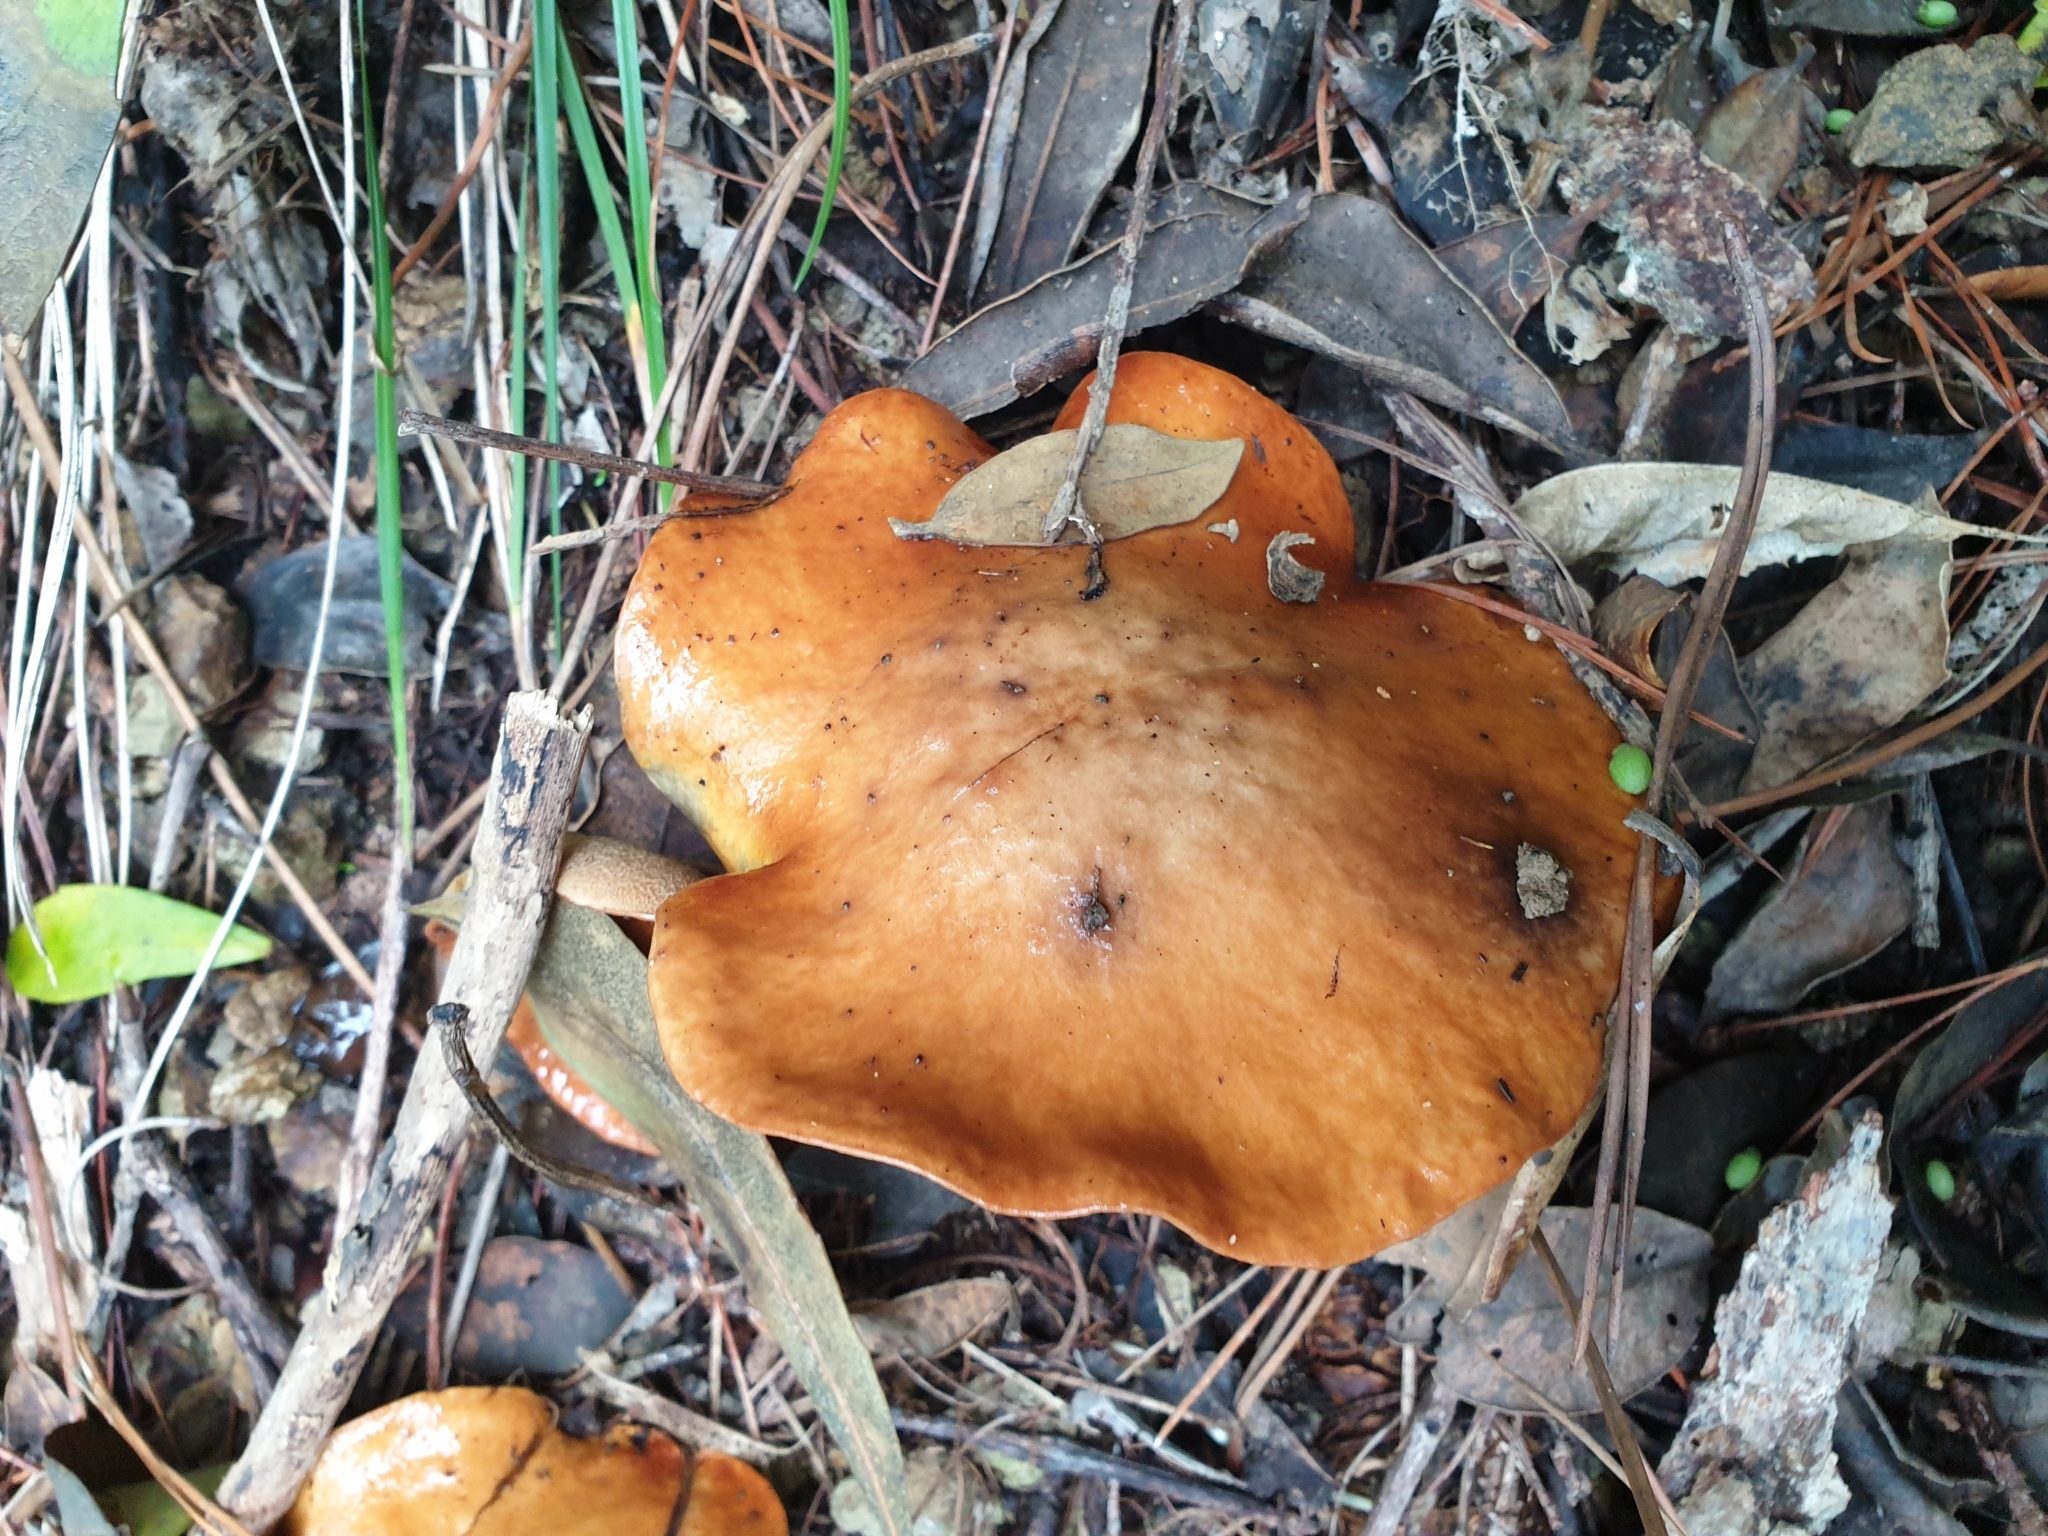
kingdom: Fungi
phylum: Basidiomycota
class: Agaricomycetes
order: Boletales
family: Suillaceae
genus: Suillus
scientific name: Suillus granulatus
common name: Weeping bolete
